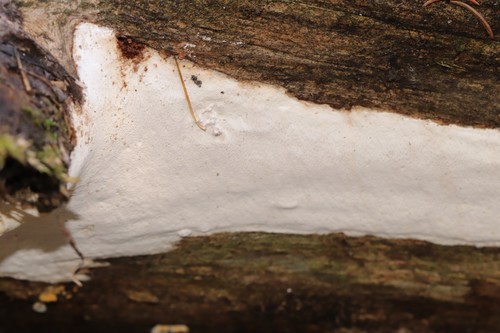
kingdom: Fungi
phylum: Basidiomycota
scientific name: Basidiomycota
